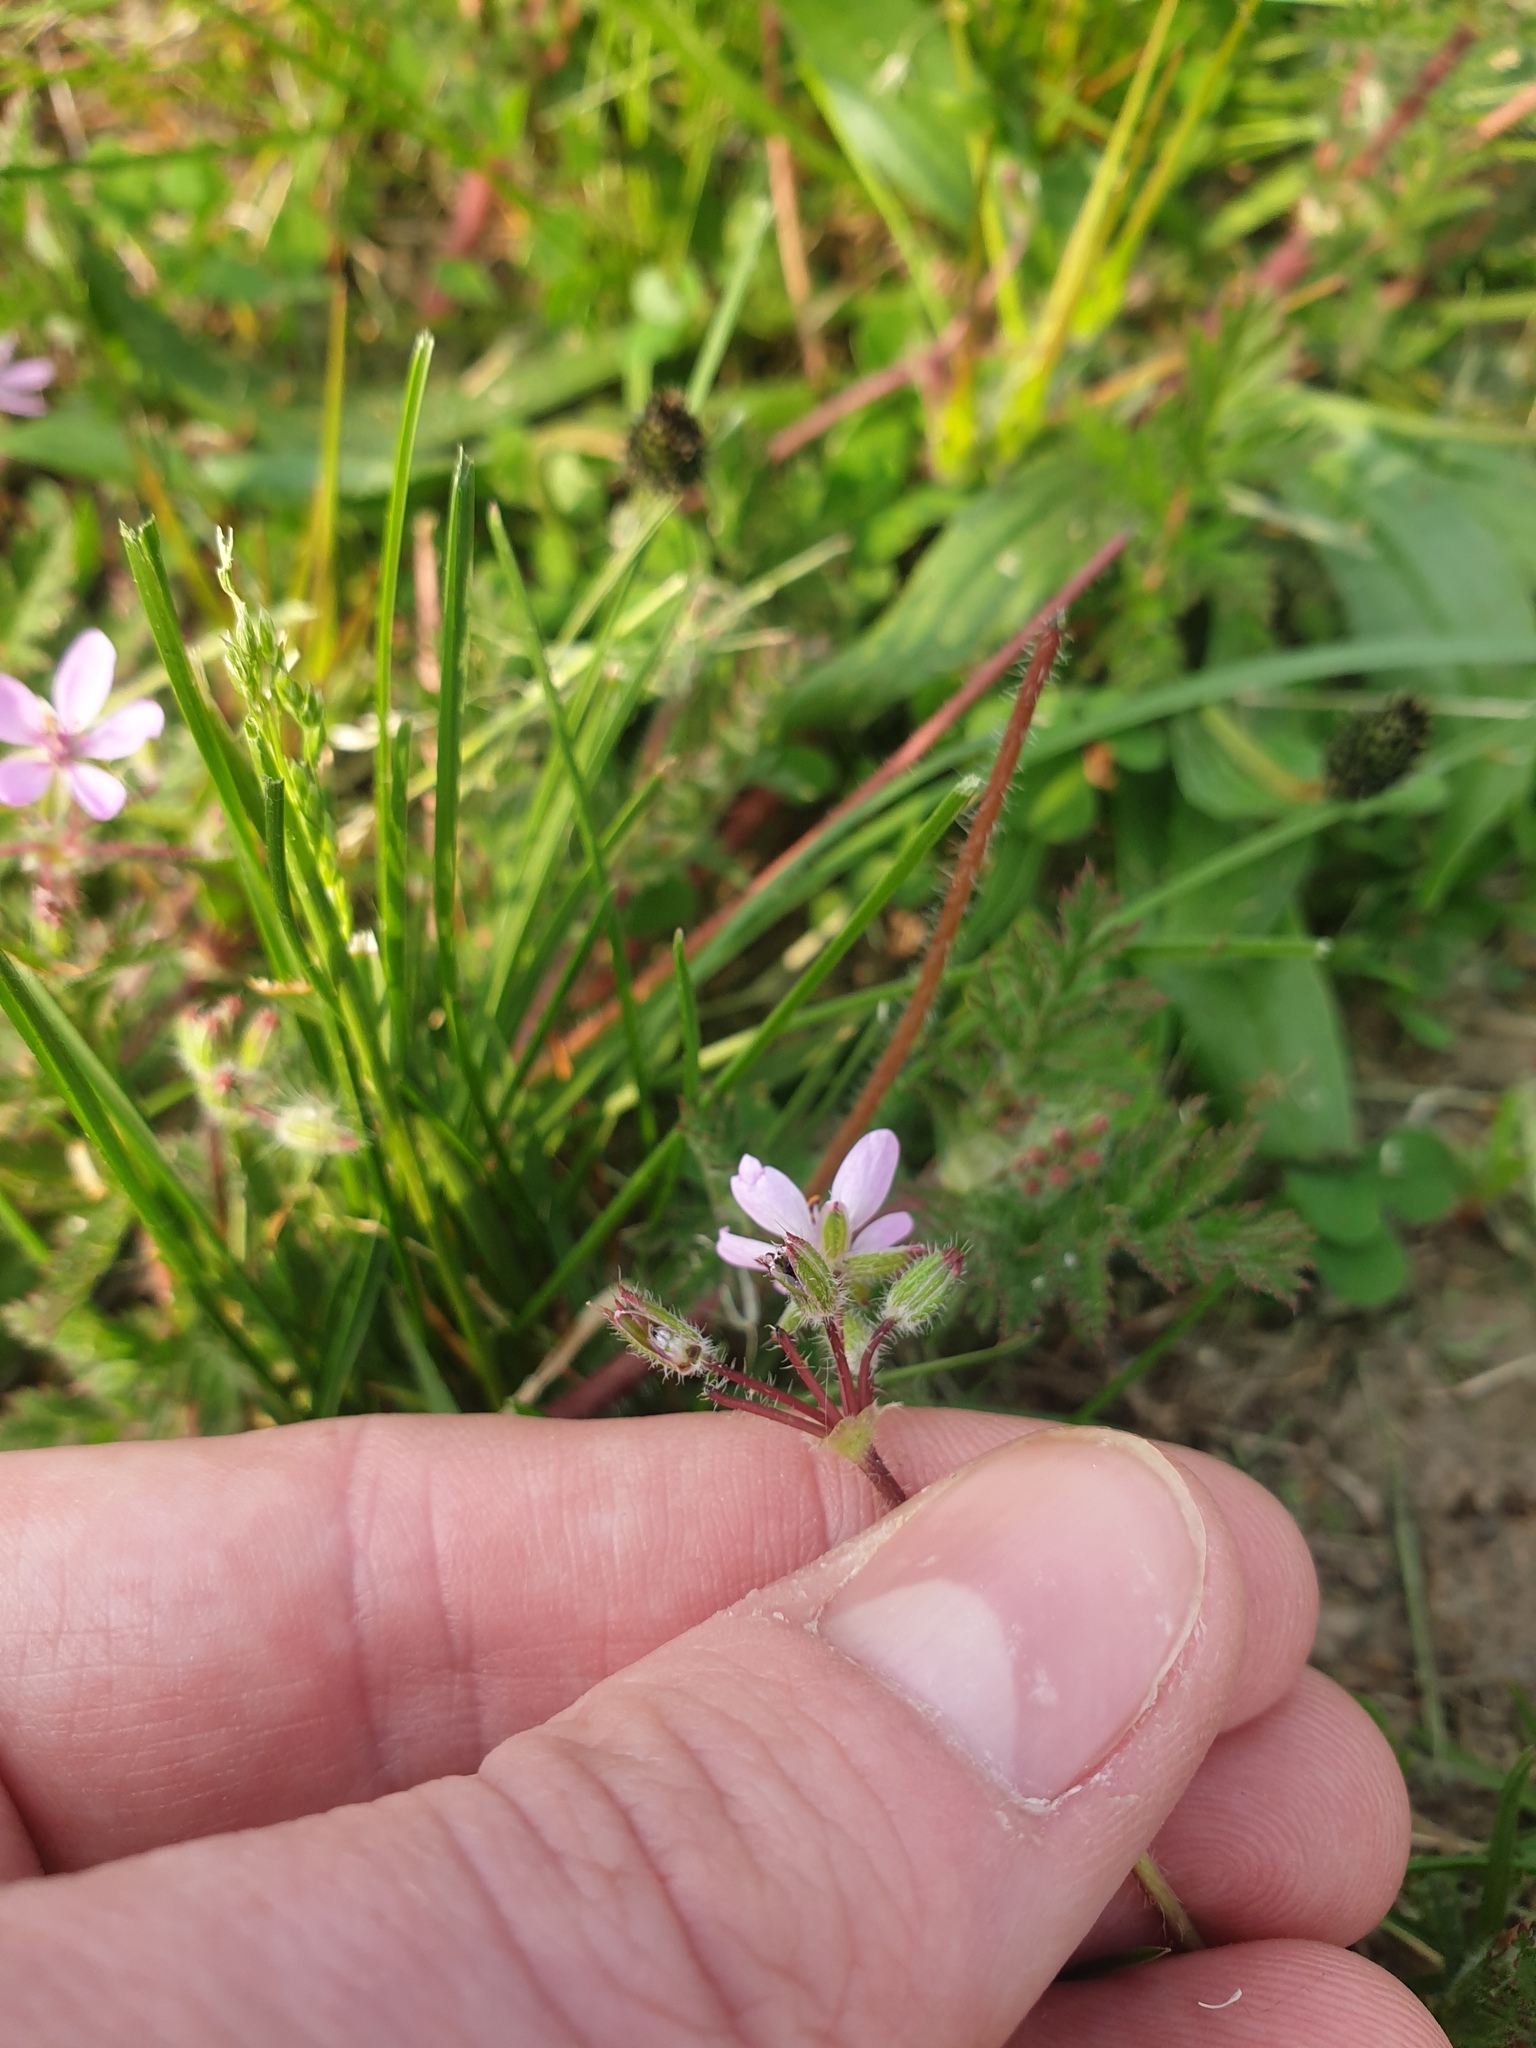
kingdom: Plantae
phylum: Tracheophyta
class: Magnoliopsida
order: Geraniales
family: Geraniaceae
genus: Erodium
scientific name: Erodium cicutarium
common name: Common stork's-bill
